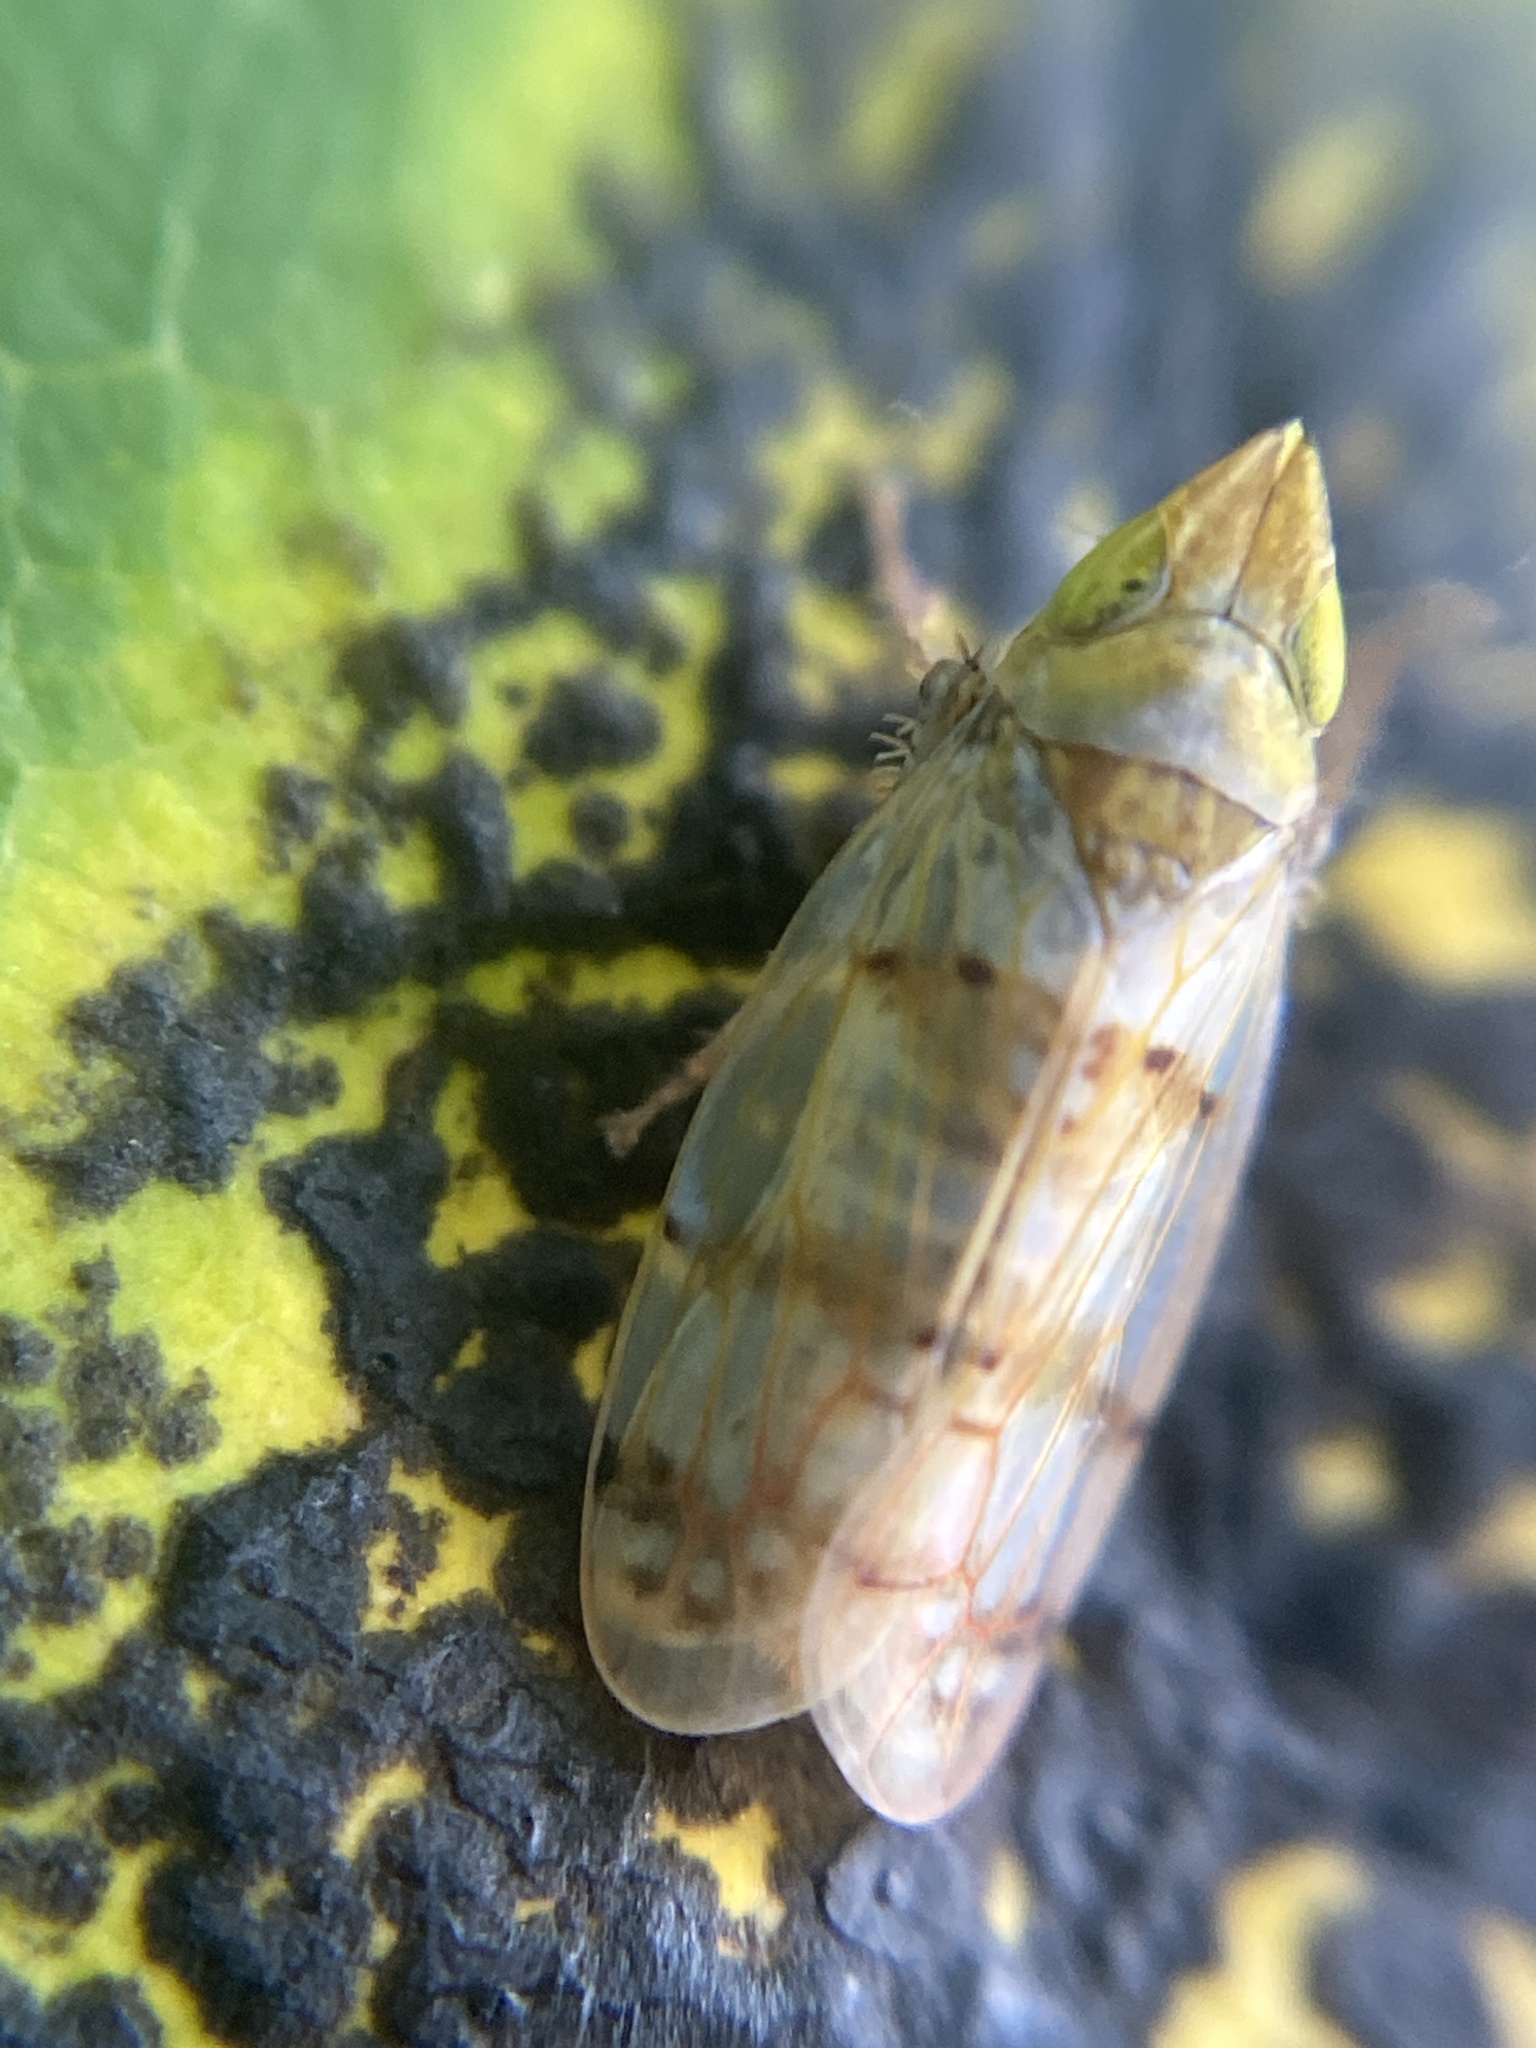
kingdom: Animalia
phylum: Arthropoda
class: Insecta
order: Hemiptera
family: Cicadellidae
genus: Japananus
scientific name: Japananus hyalinus
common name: The japanese maple leafhopper
